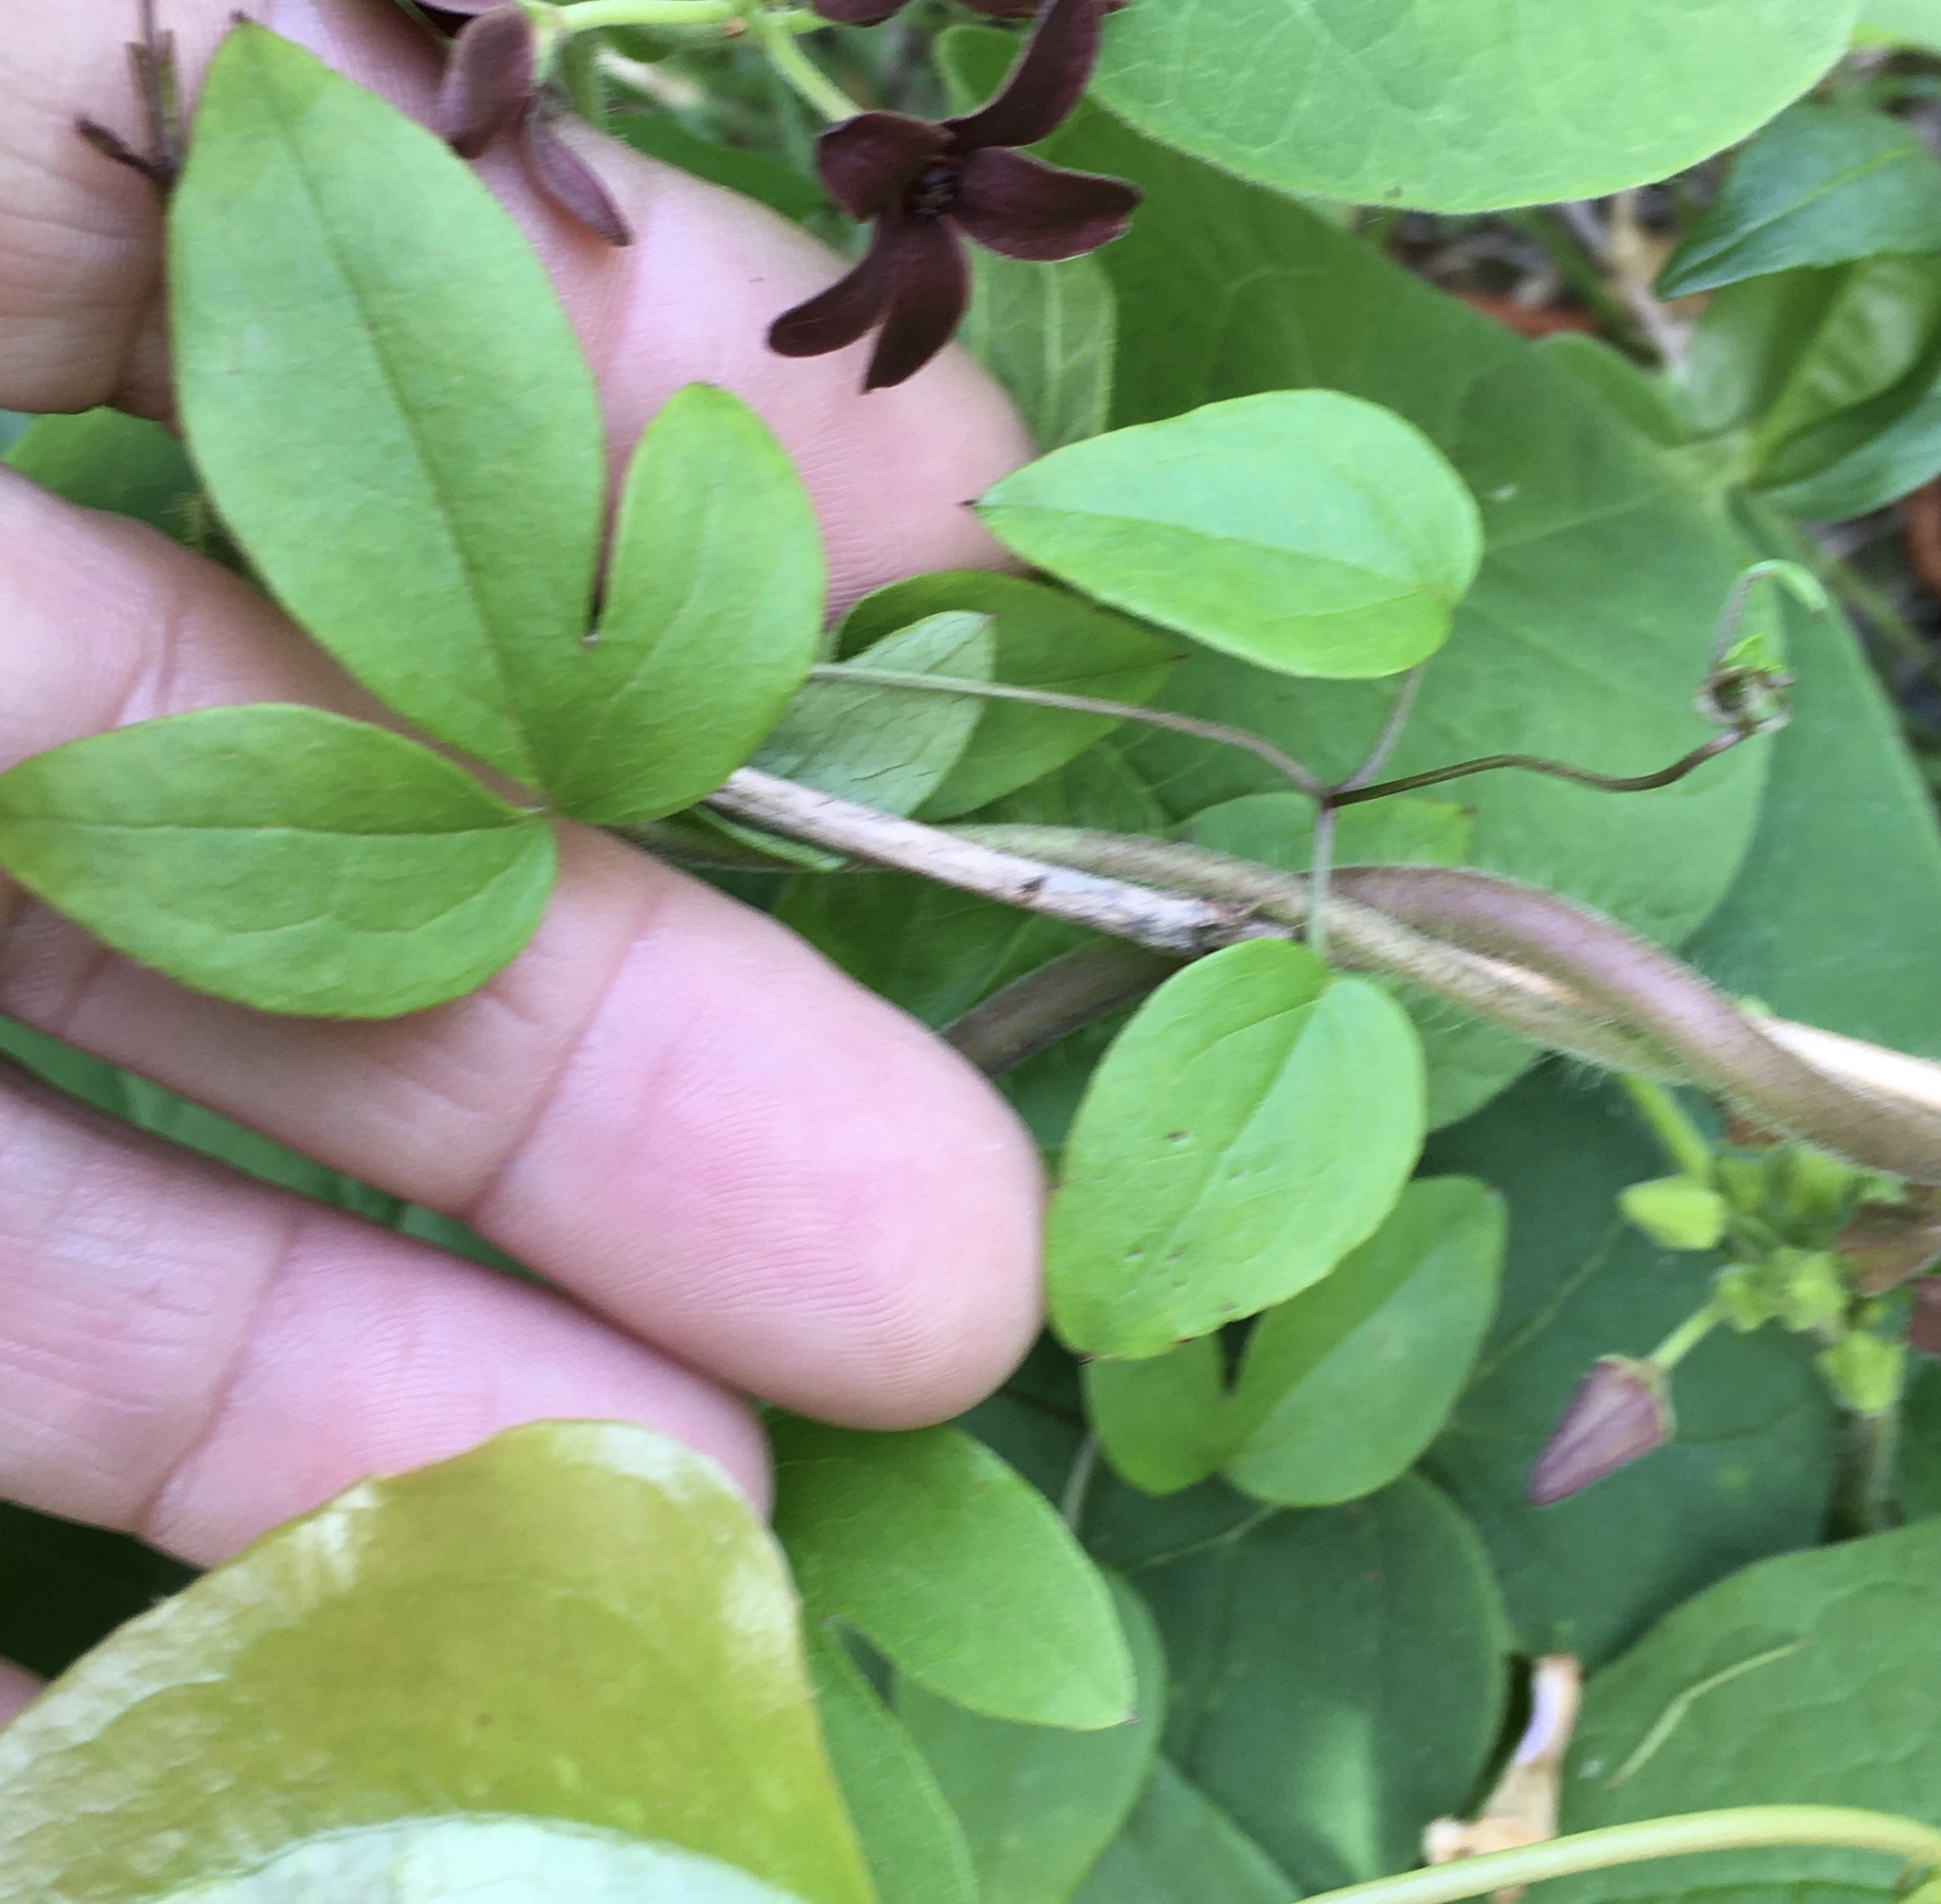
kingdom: Plantae
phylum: Tracheophyta
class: Magnoliopsida
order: Ranunculales
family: Ranunculaceae
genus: Clematis
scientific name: Clematis viorna
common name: Leather-flower
